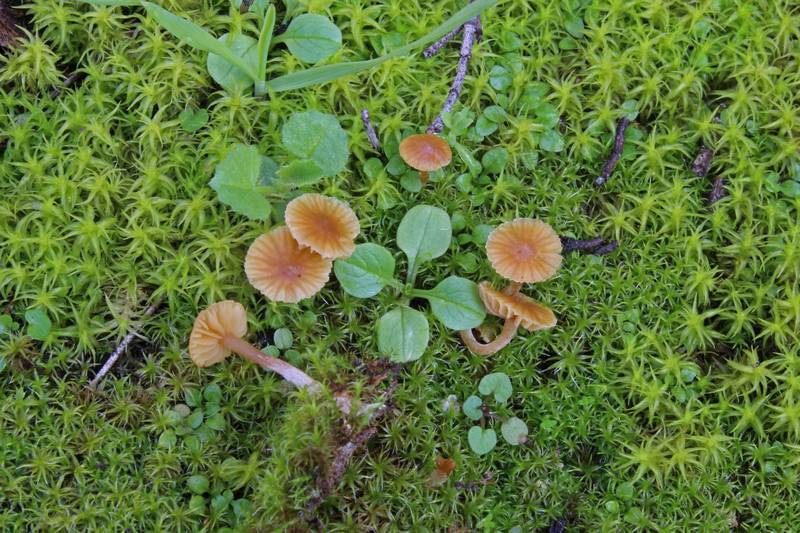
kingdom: Fungi
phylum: Basidiomycota
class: Agaricomycetes
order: Agaricales
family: Hymenogastraceae
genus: Galerina
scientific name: Galerina graminea
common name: Turf bell
